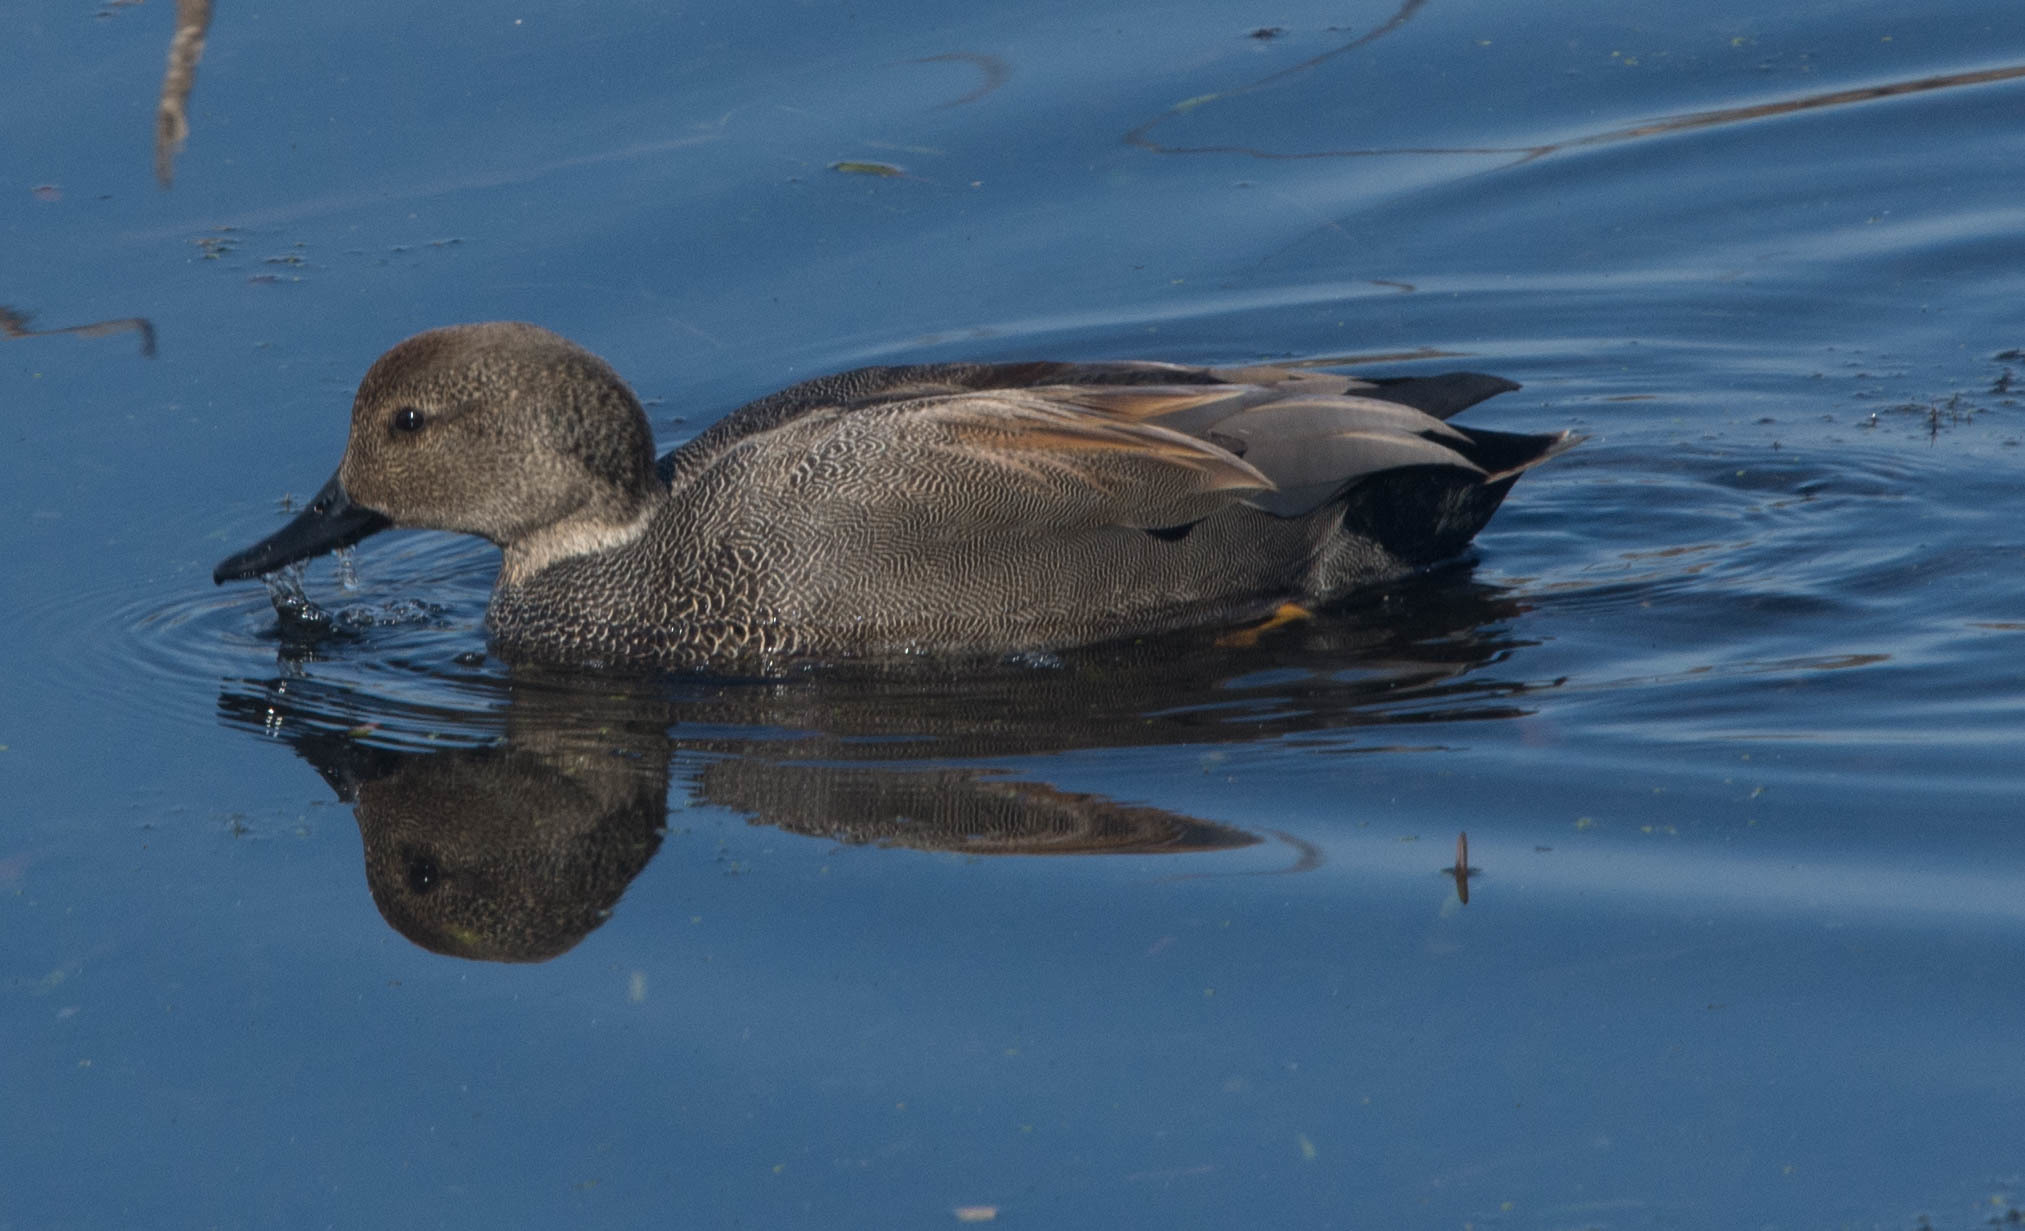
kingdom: Animalia
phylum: Chordata
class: Aves
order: Anseriformes
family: Anatidae
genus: Mareca
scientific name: Mareca strepera
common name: Gadwall
